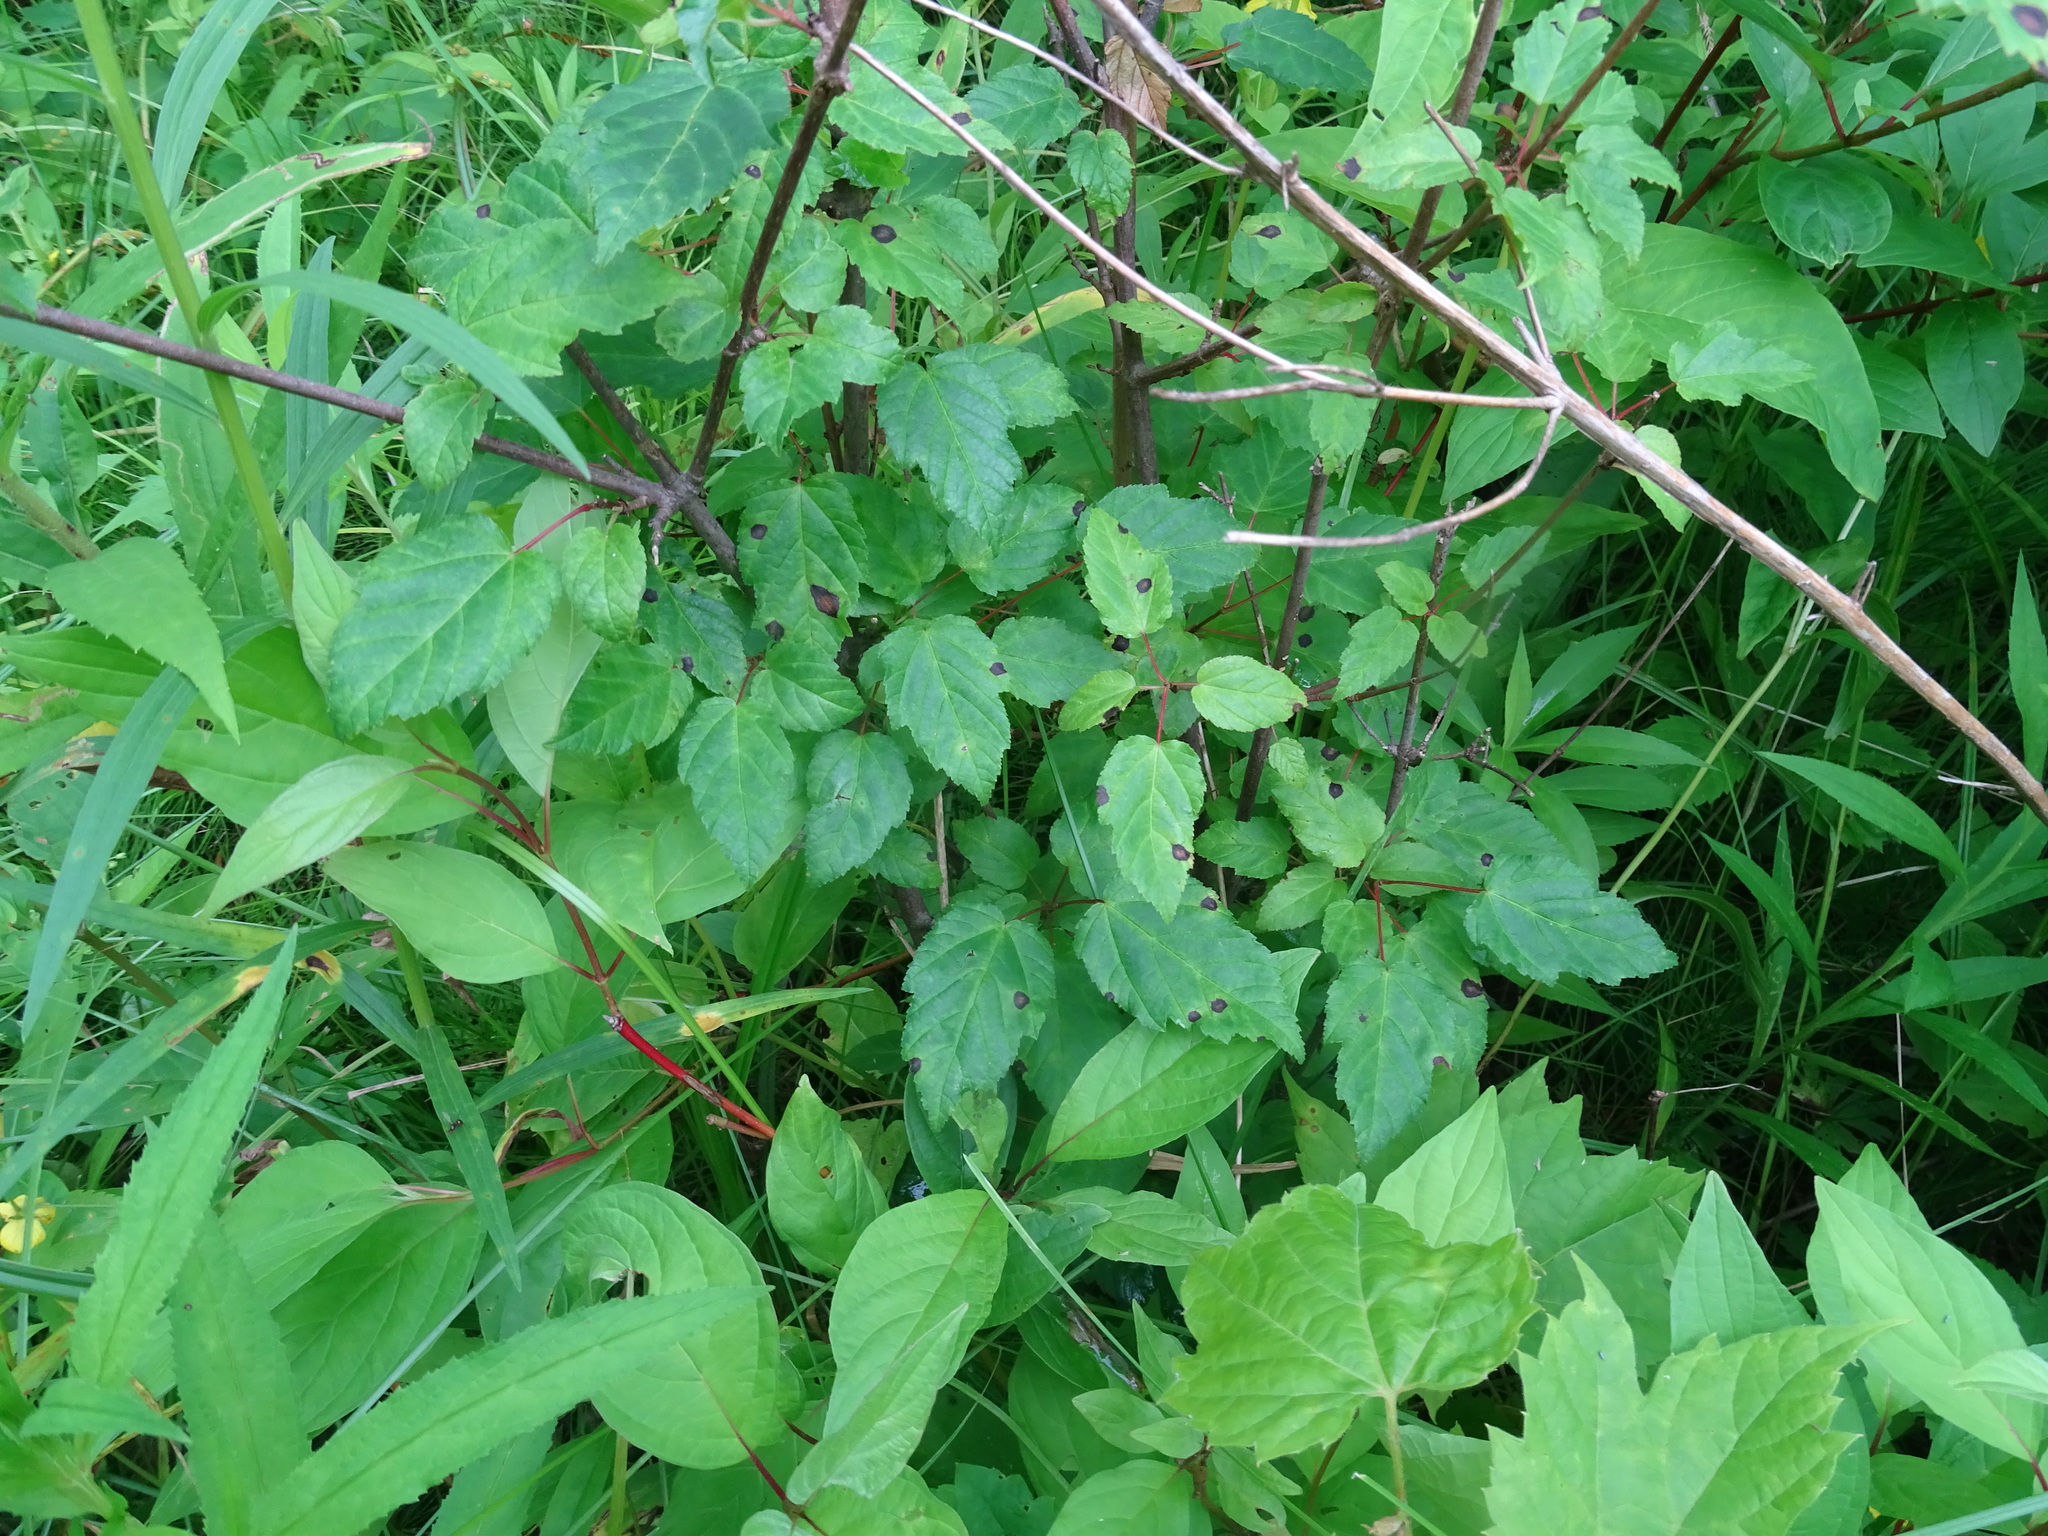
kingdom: Plantae
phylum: Tracheophyta
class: Magnoliopsida
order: Sapindales
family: Sapindaceae
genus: Acer
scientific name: Acer tataricum
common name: Tartar maple
